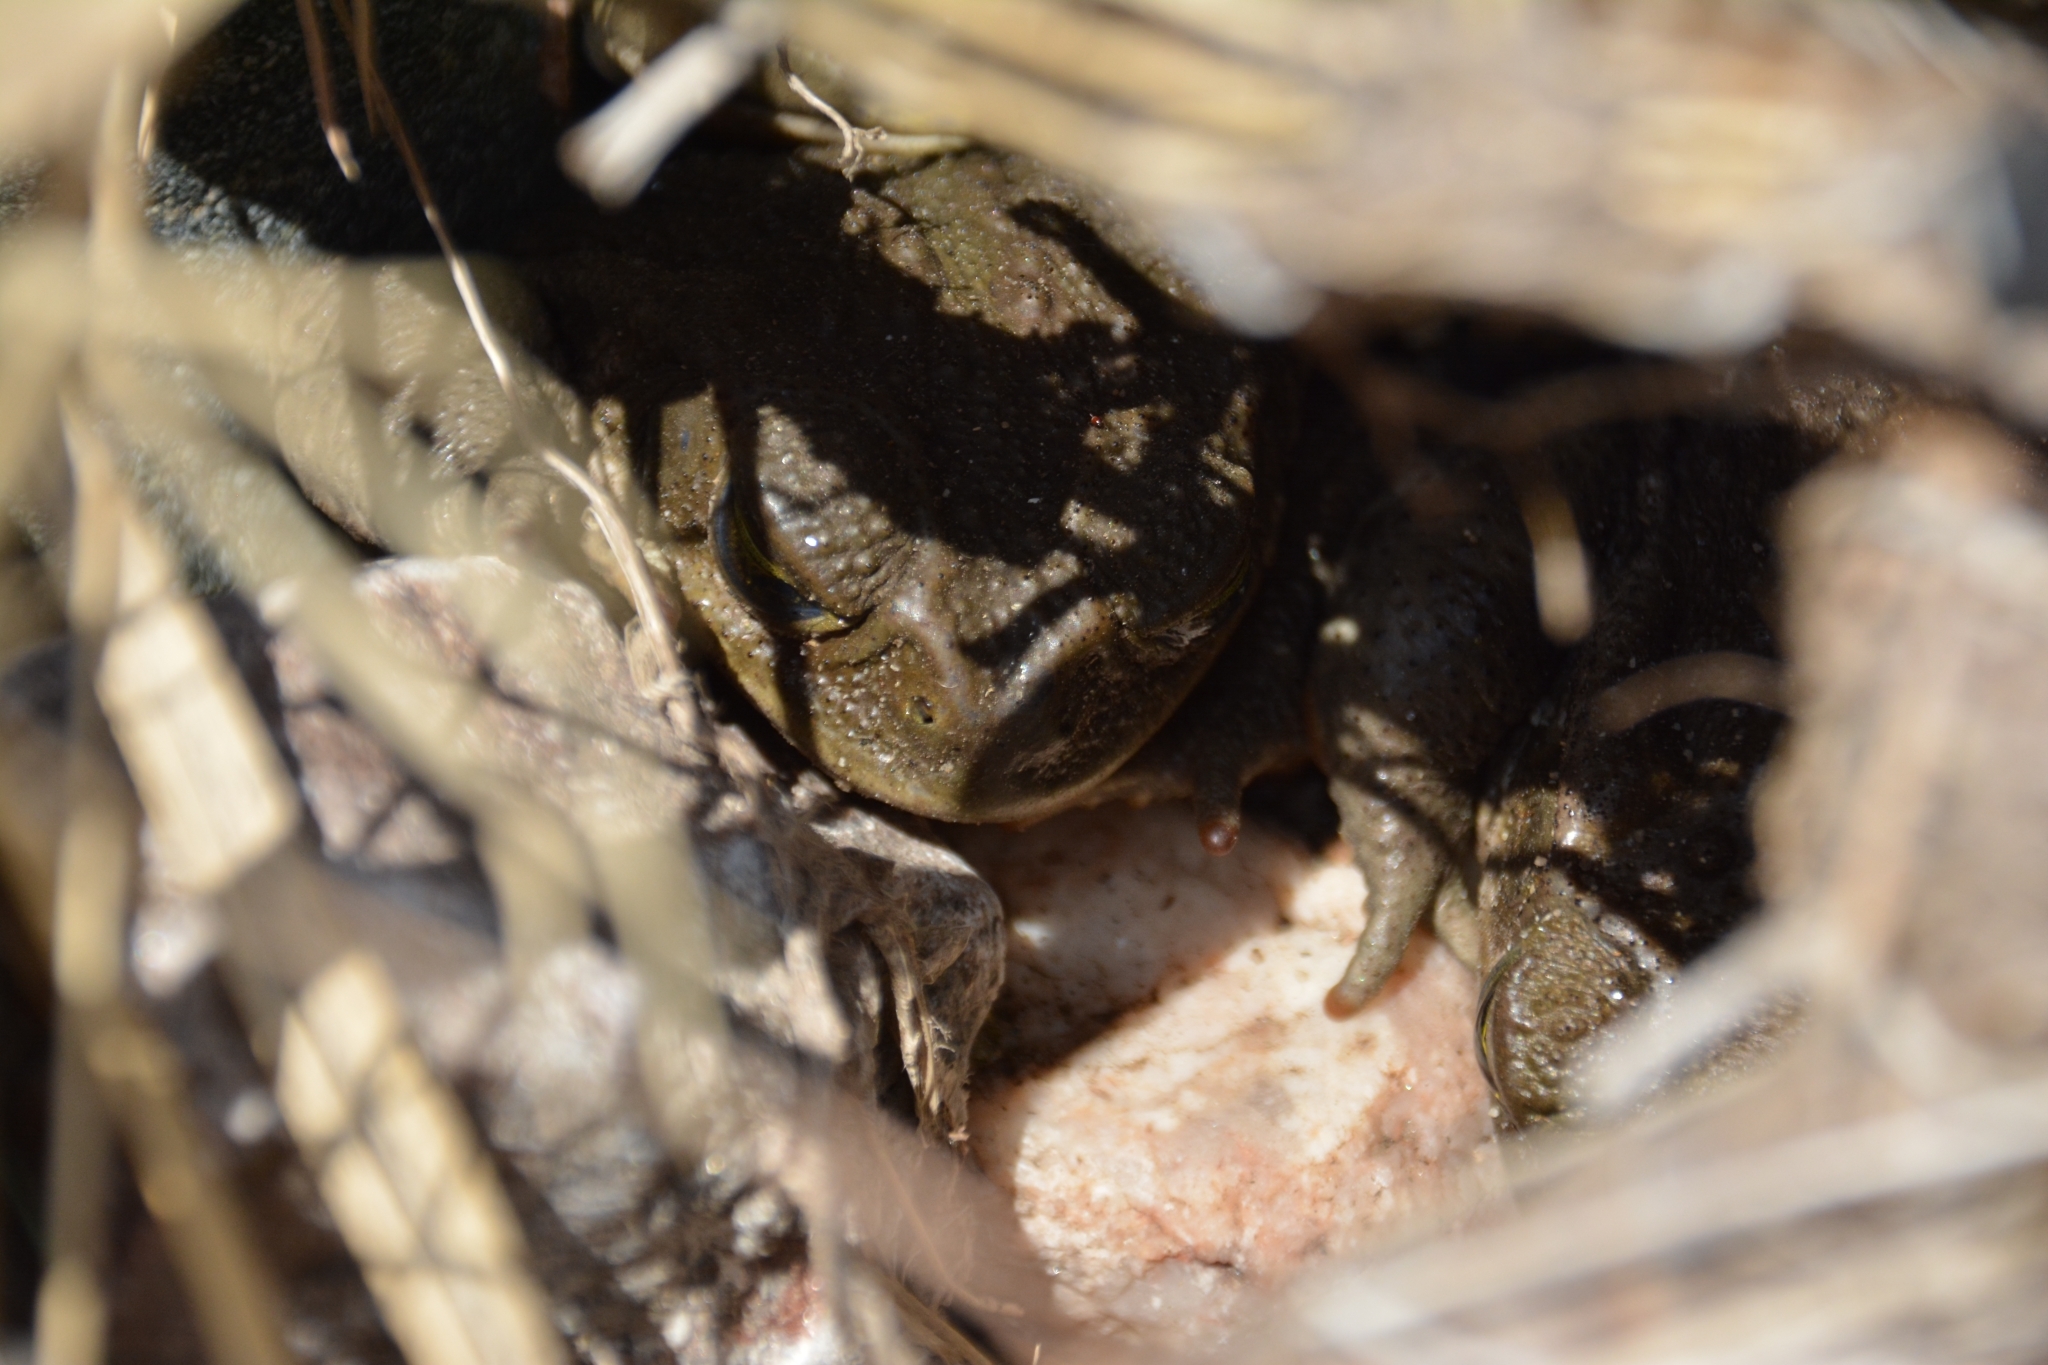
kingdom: Animalia
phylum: Chordata
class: Amphibia
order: Anura
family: Bufonidae
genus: Rhinella
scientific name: Rhinella arenarum
